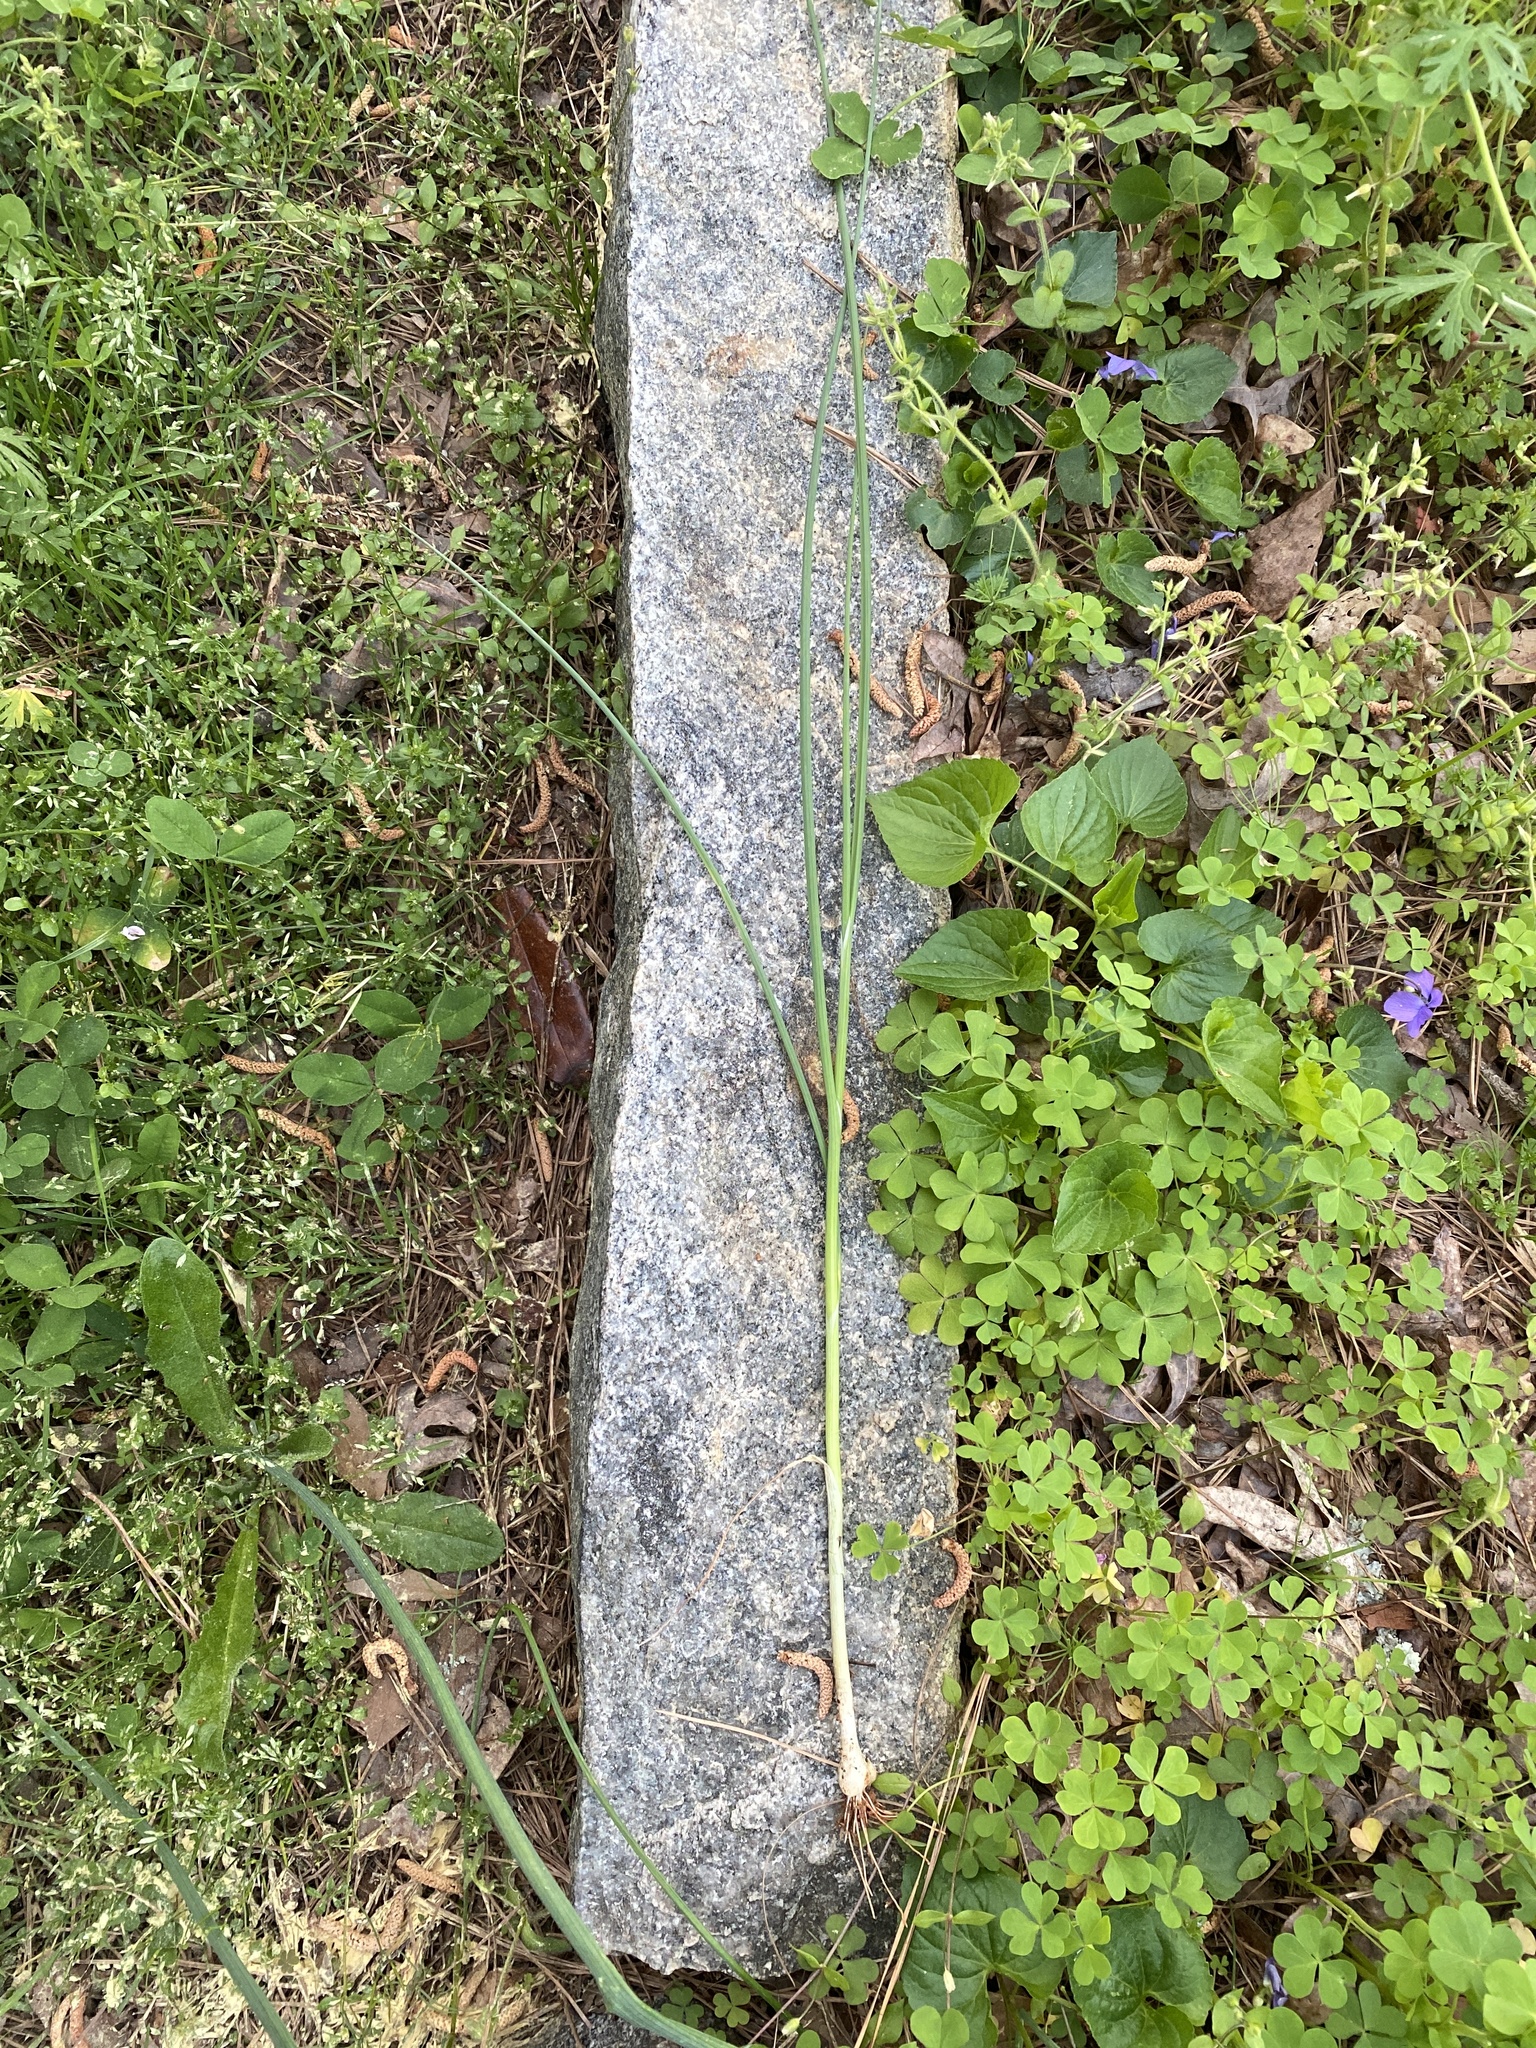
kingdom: Plantae
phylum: Tracheophyta
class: Liliopsida
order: Asparagales
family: Amaryllidaceae
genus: Allium
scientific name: Allium vineale
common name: Crow garlic
